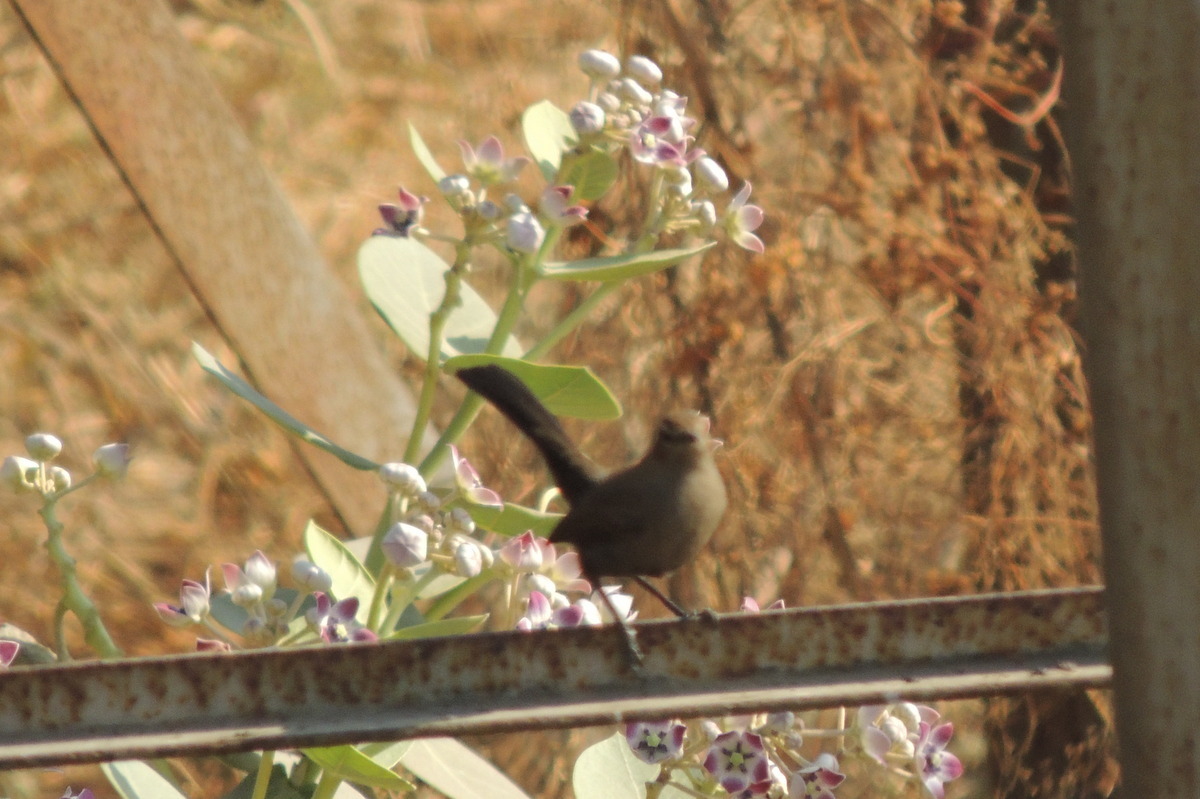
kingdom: Animalia
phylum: Chordata
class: Aves
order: Passeriformes
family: Muscicapidae
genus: Saxicoloides
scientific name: Saxicoloides fulicatus
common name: Indian robin
